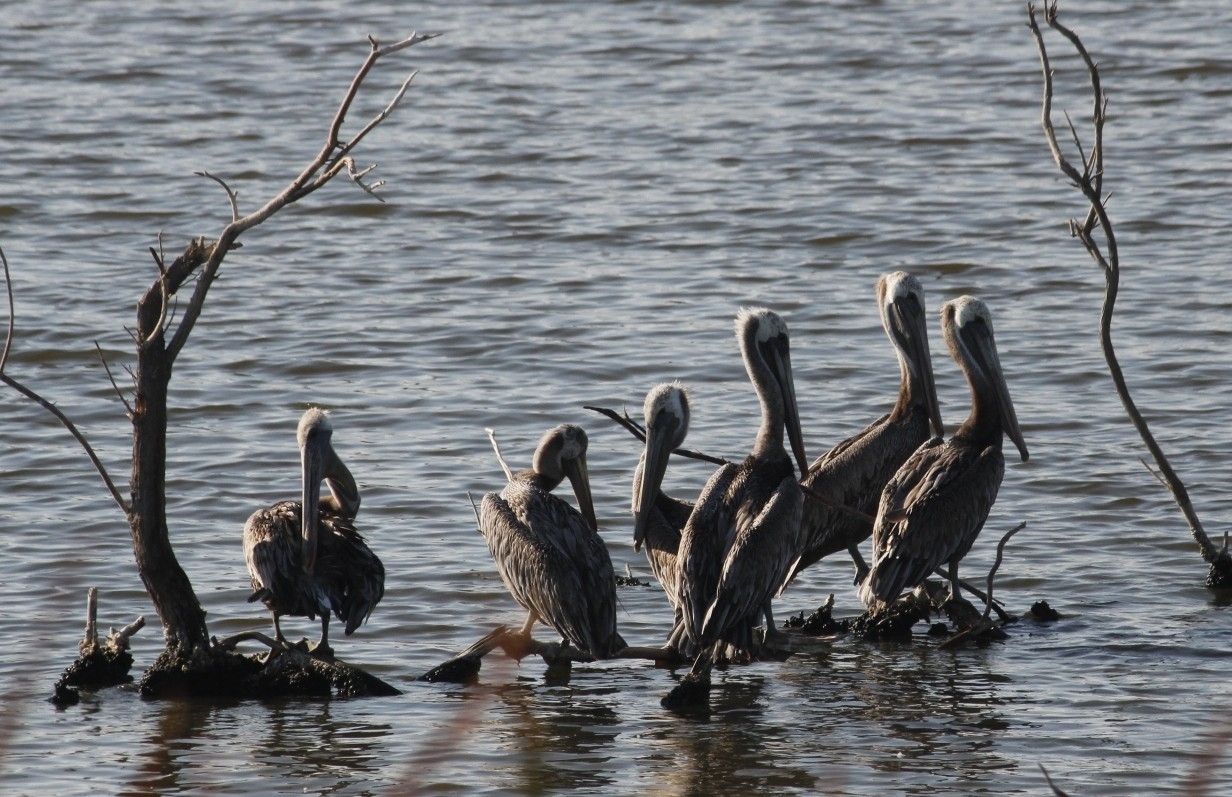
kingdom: Animalia
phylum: Chordata
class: Aves
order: Pelecaniformes
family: Pelecanidae
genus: Pelecanus
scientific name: Pelecanus occidentalis
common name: Brown pelican
